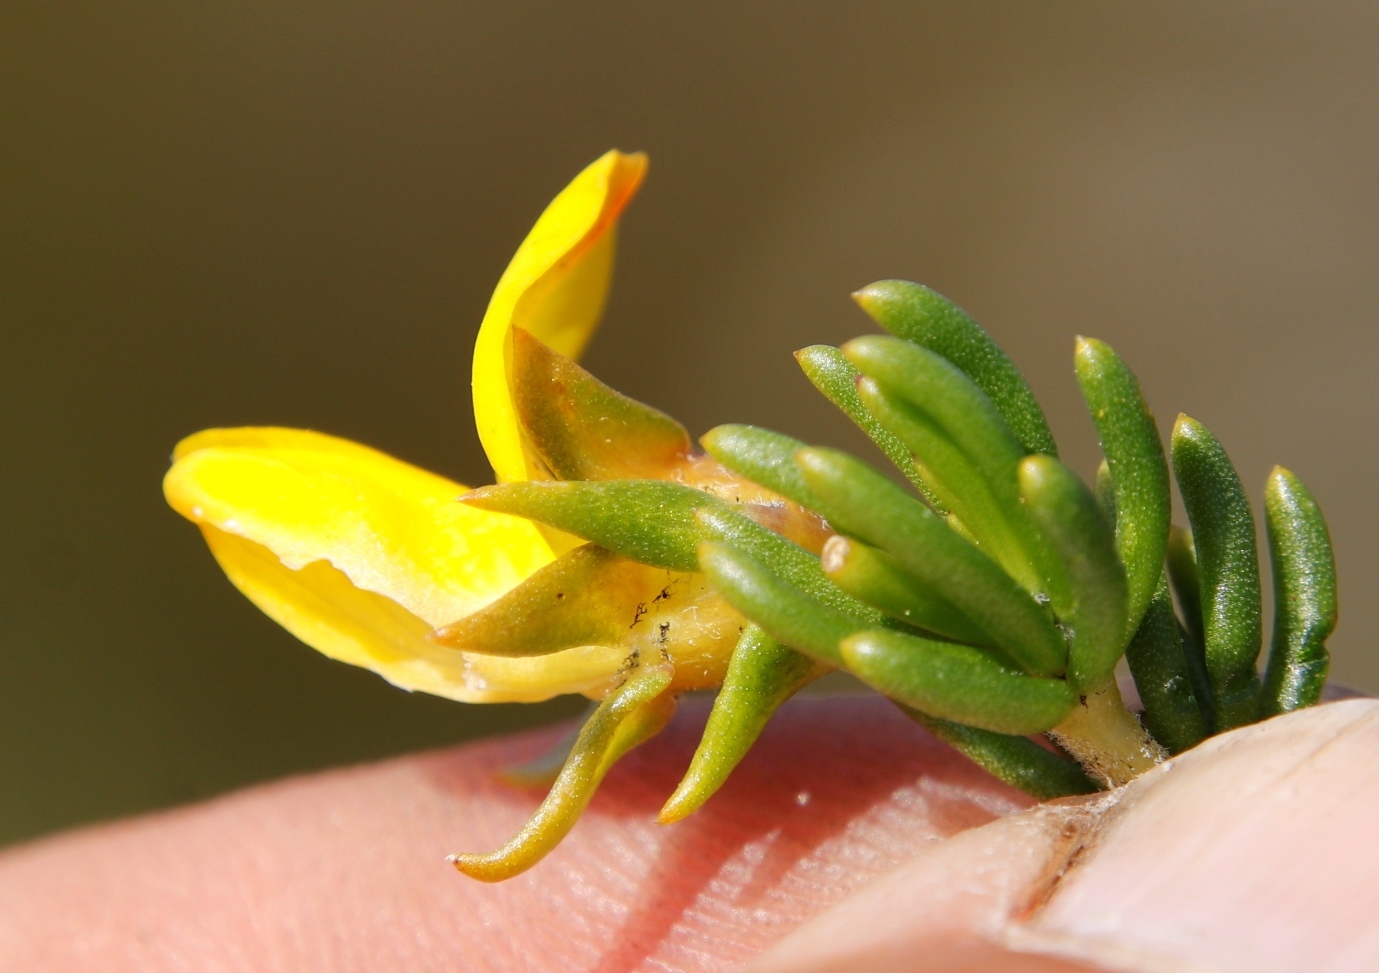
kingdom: Plantae
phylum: Tracheophyta
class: Magnoliopsida
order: Fabales
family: Fabaceae
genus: Aspalathus
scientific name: Aspalathus carnosa
